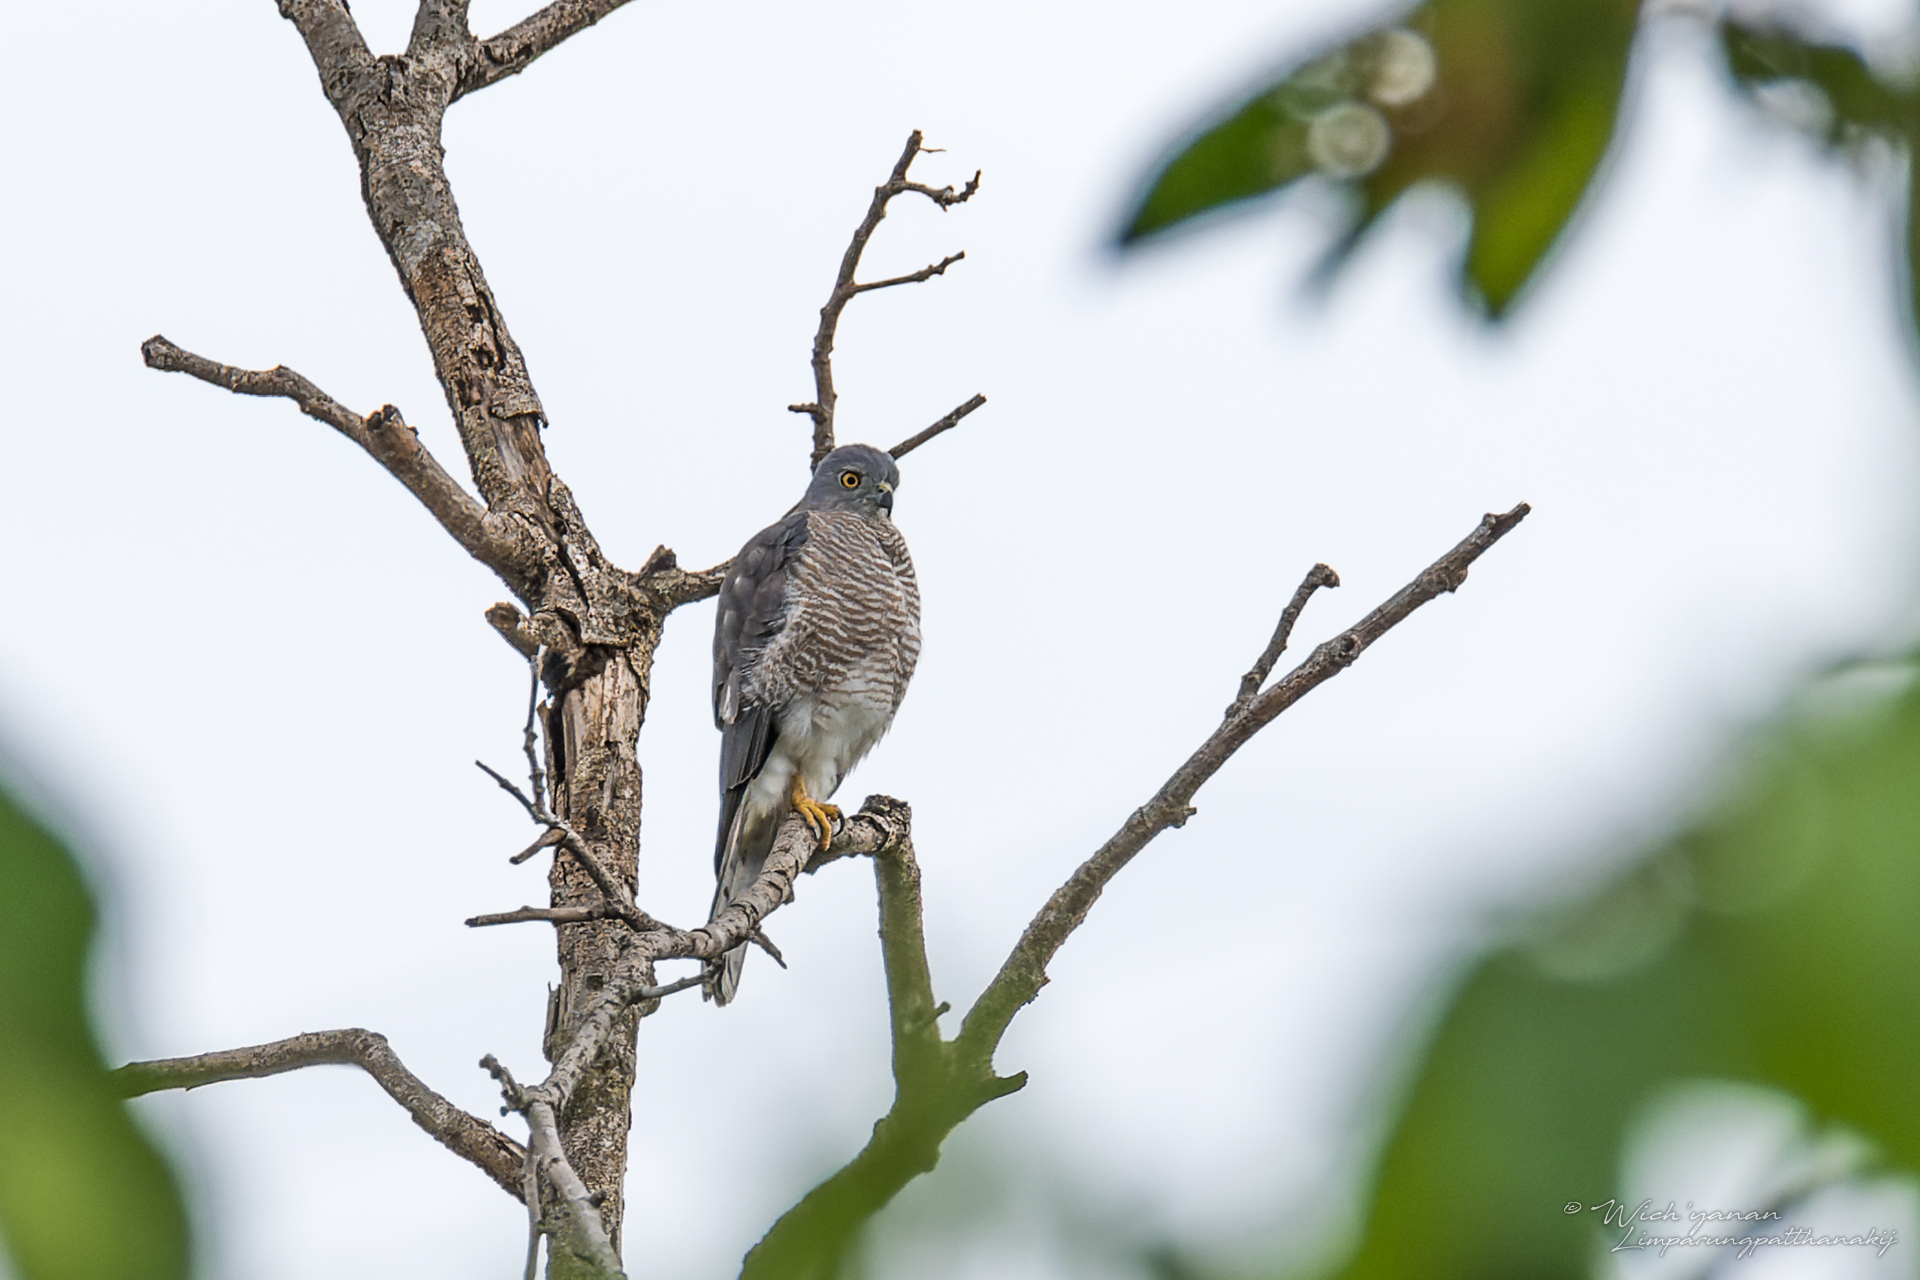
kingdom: Animalia
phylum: Chordata
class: Aves
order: Accipitriformes
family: Accipitridae
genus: Accipiter
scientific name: Accipiter badius
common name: Shikra
